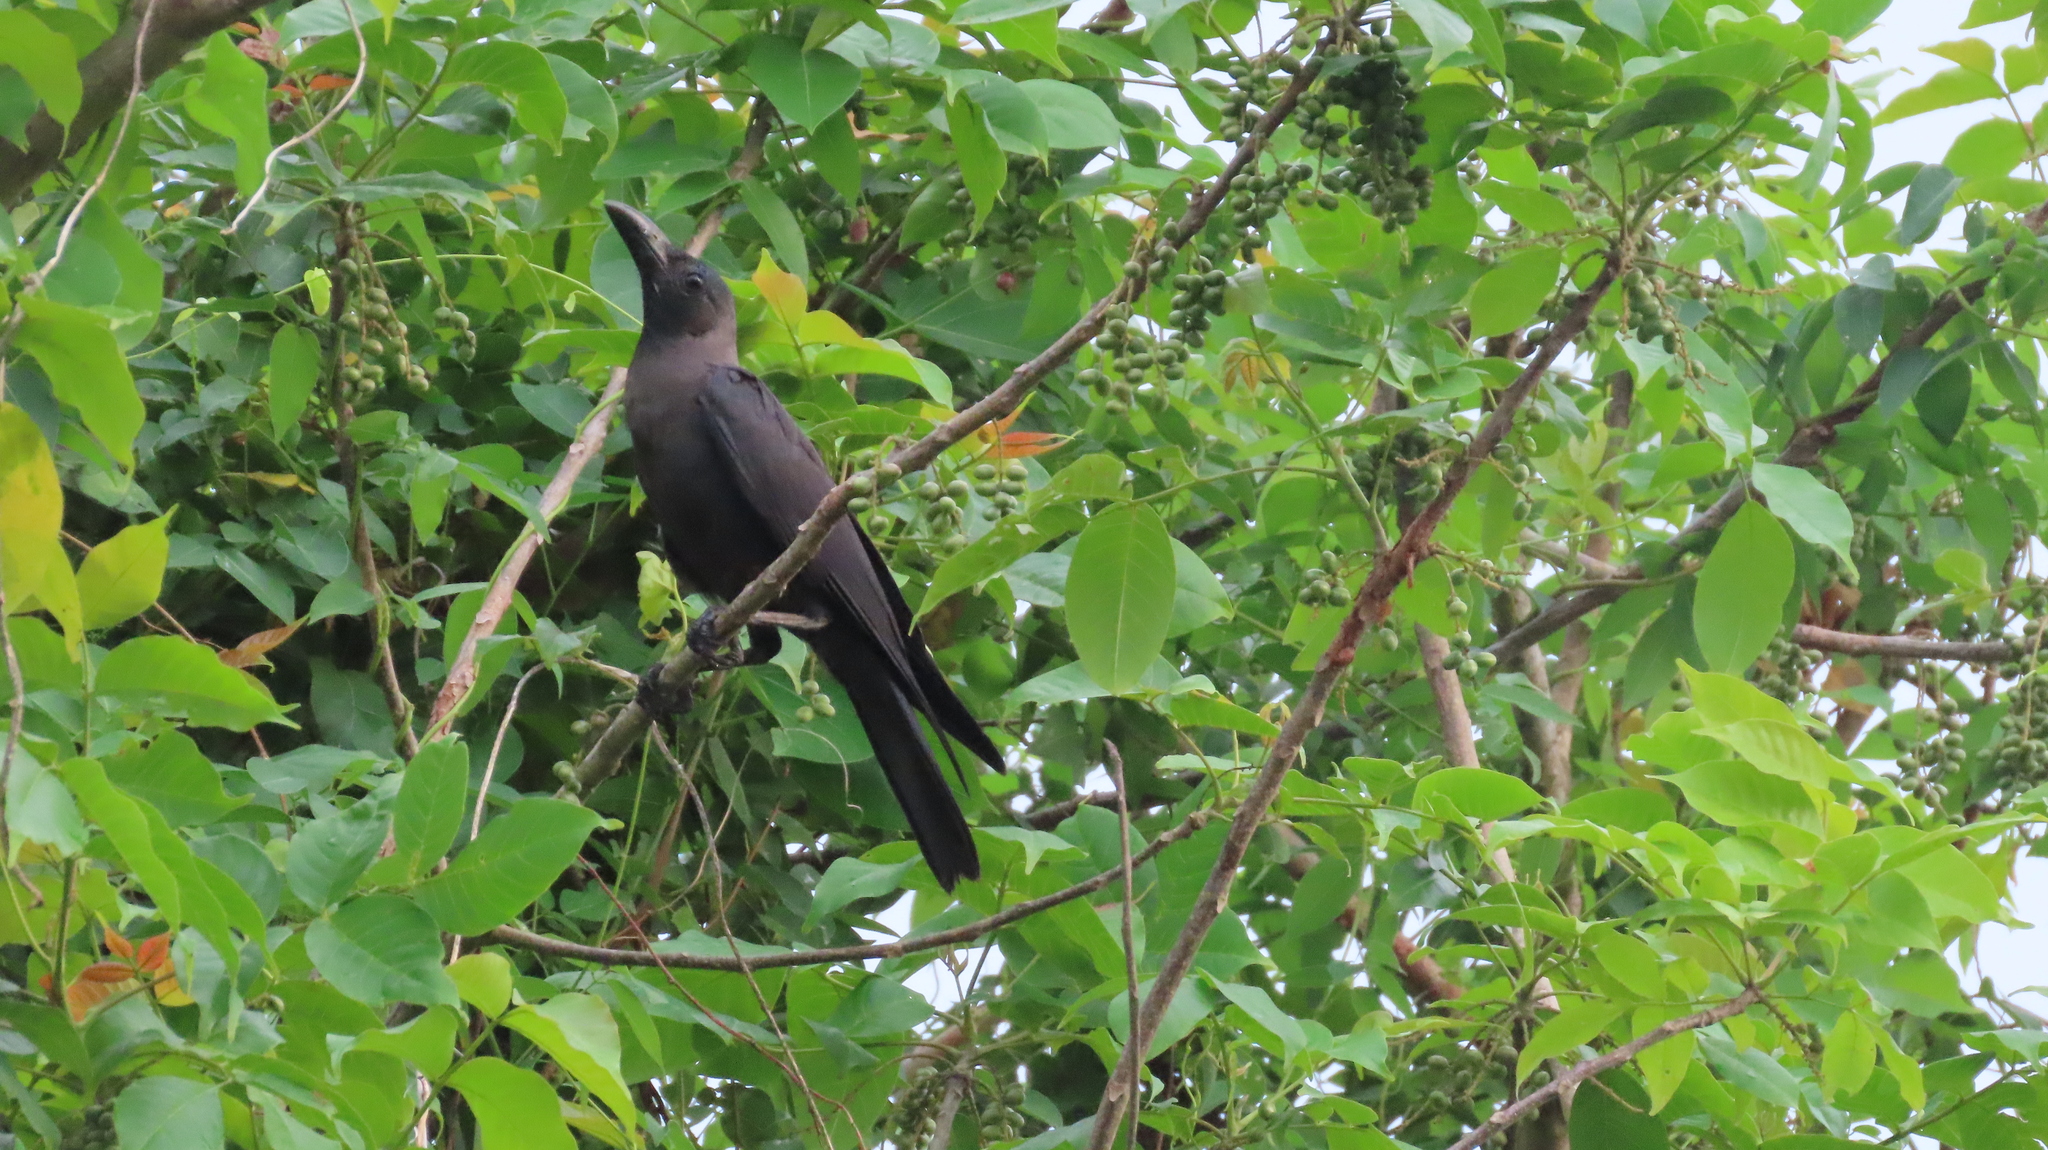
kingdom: Animalia
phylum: Chordata
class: Aves
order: Passeriformes
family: Corvidae
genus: Corvus
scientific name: Corvus splendens
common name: House crow
